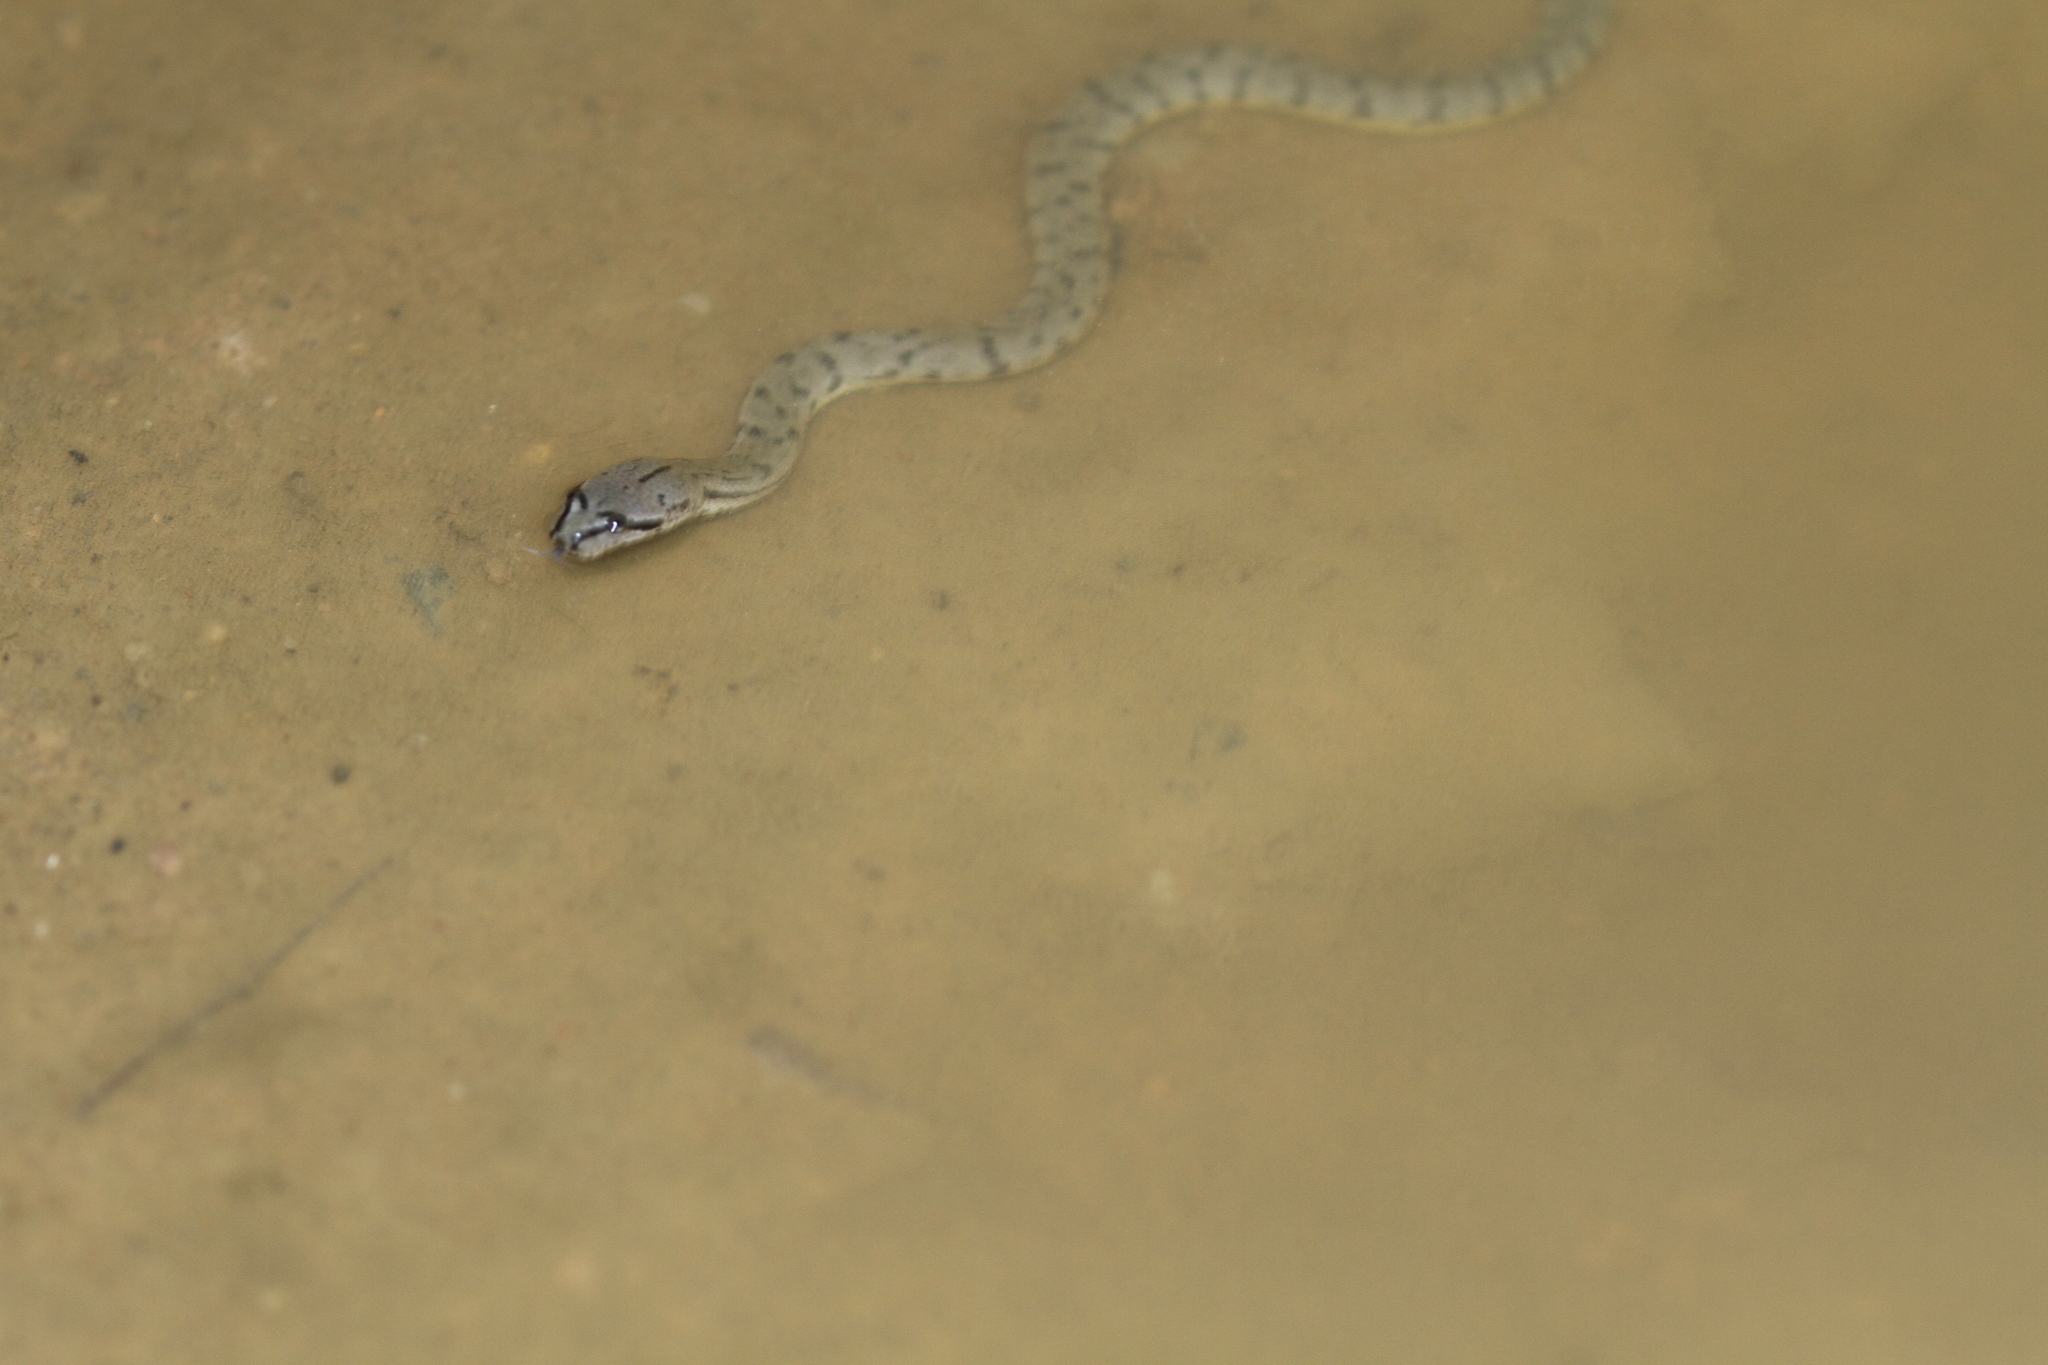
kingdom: Animalia
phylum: Chordata
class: Squamata
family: Homalopsidae
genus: Cerberus
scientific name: Cerberus schneiderii
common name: Southeast asian bockadam
